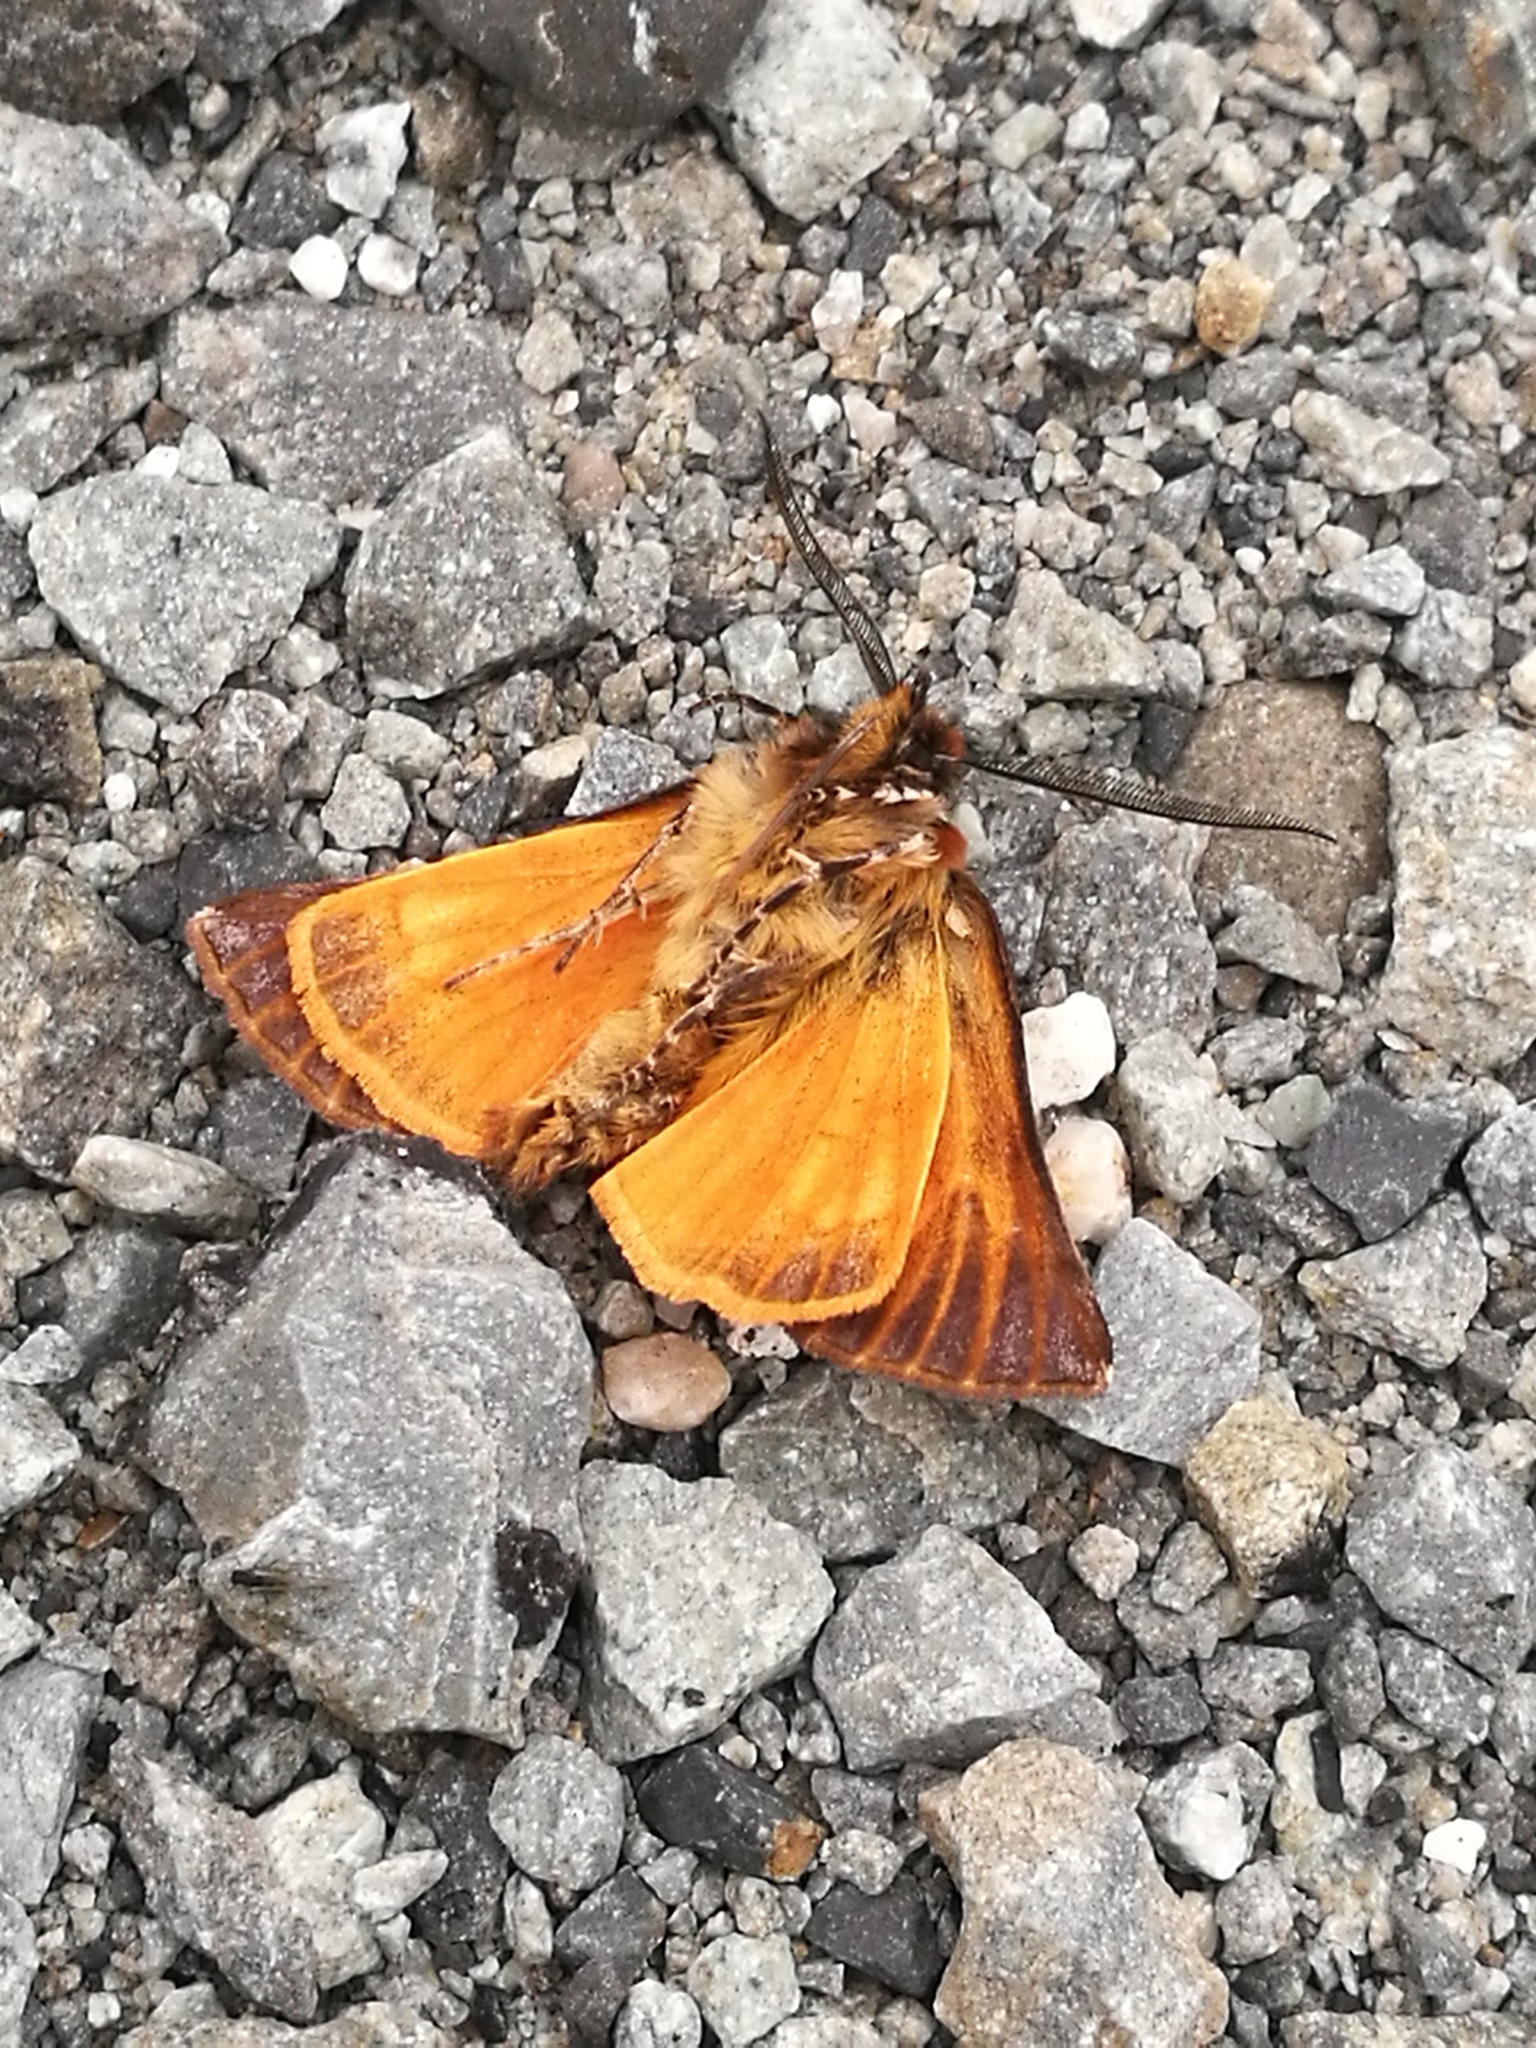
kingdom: Animalia
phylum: Arthropoda
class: Insecta
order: Lepidoptera
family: Geometridae
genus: Declana
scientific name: Declana
